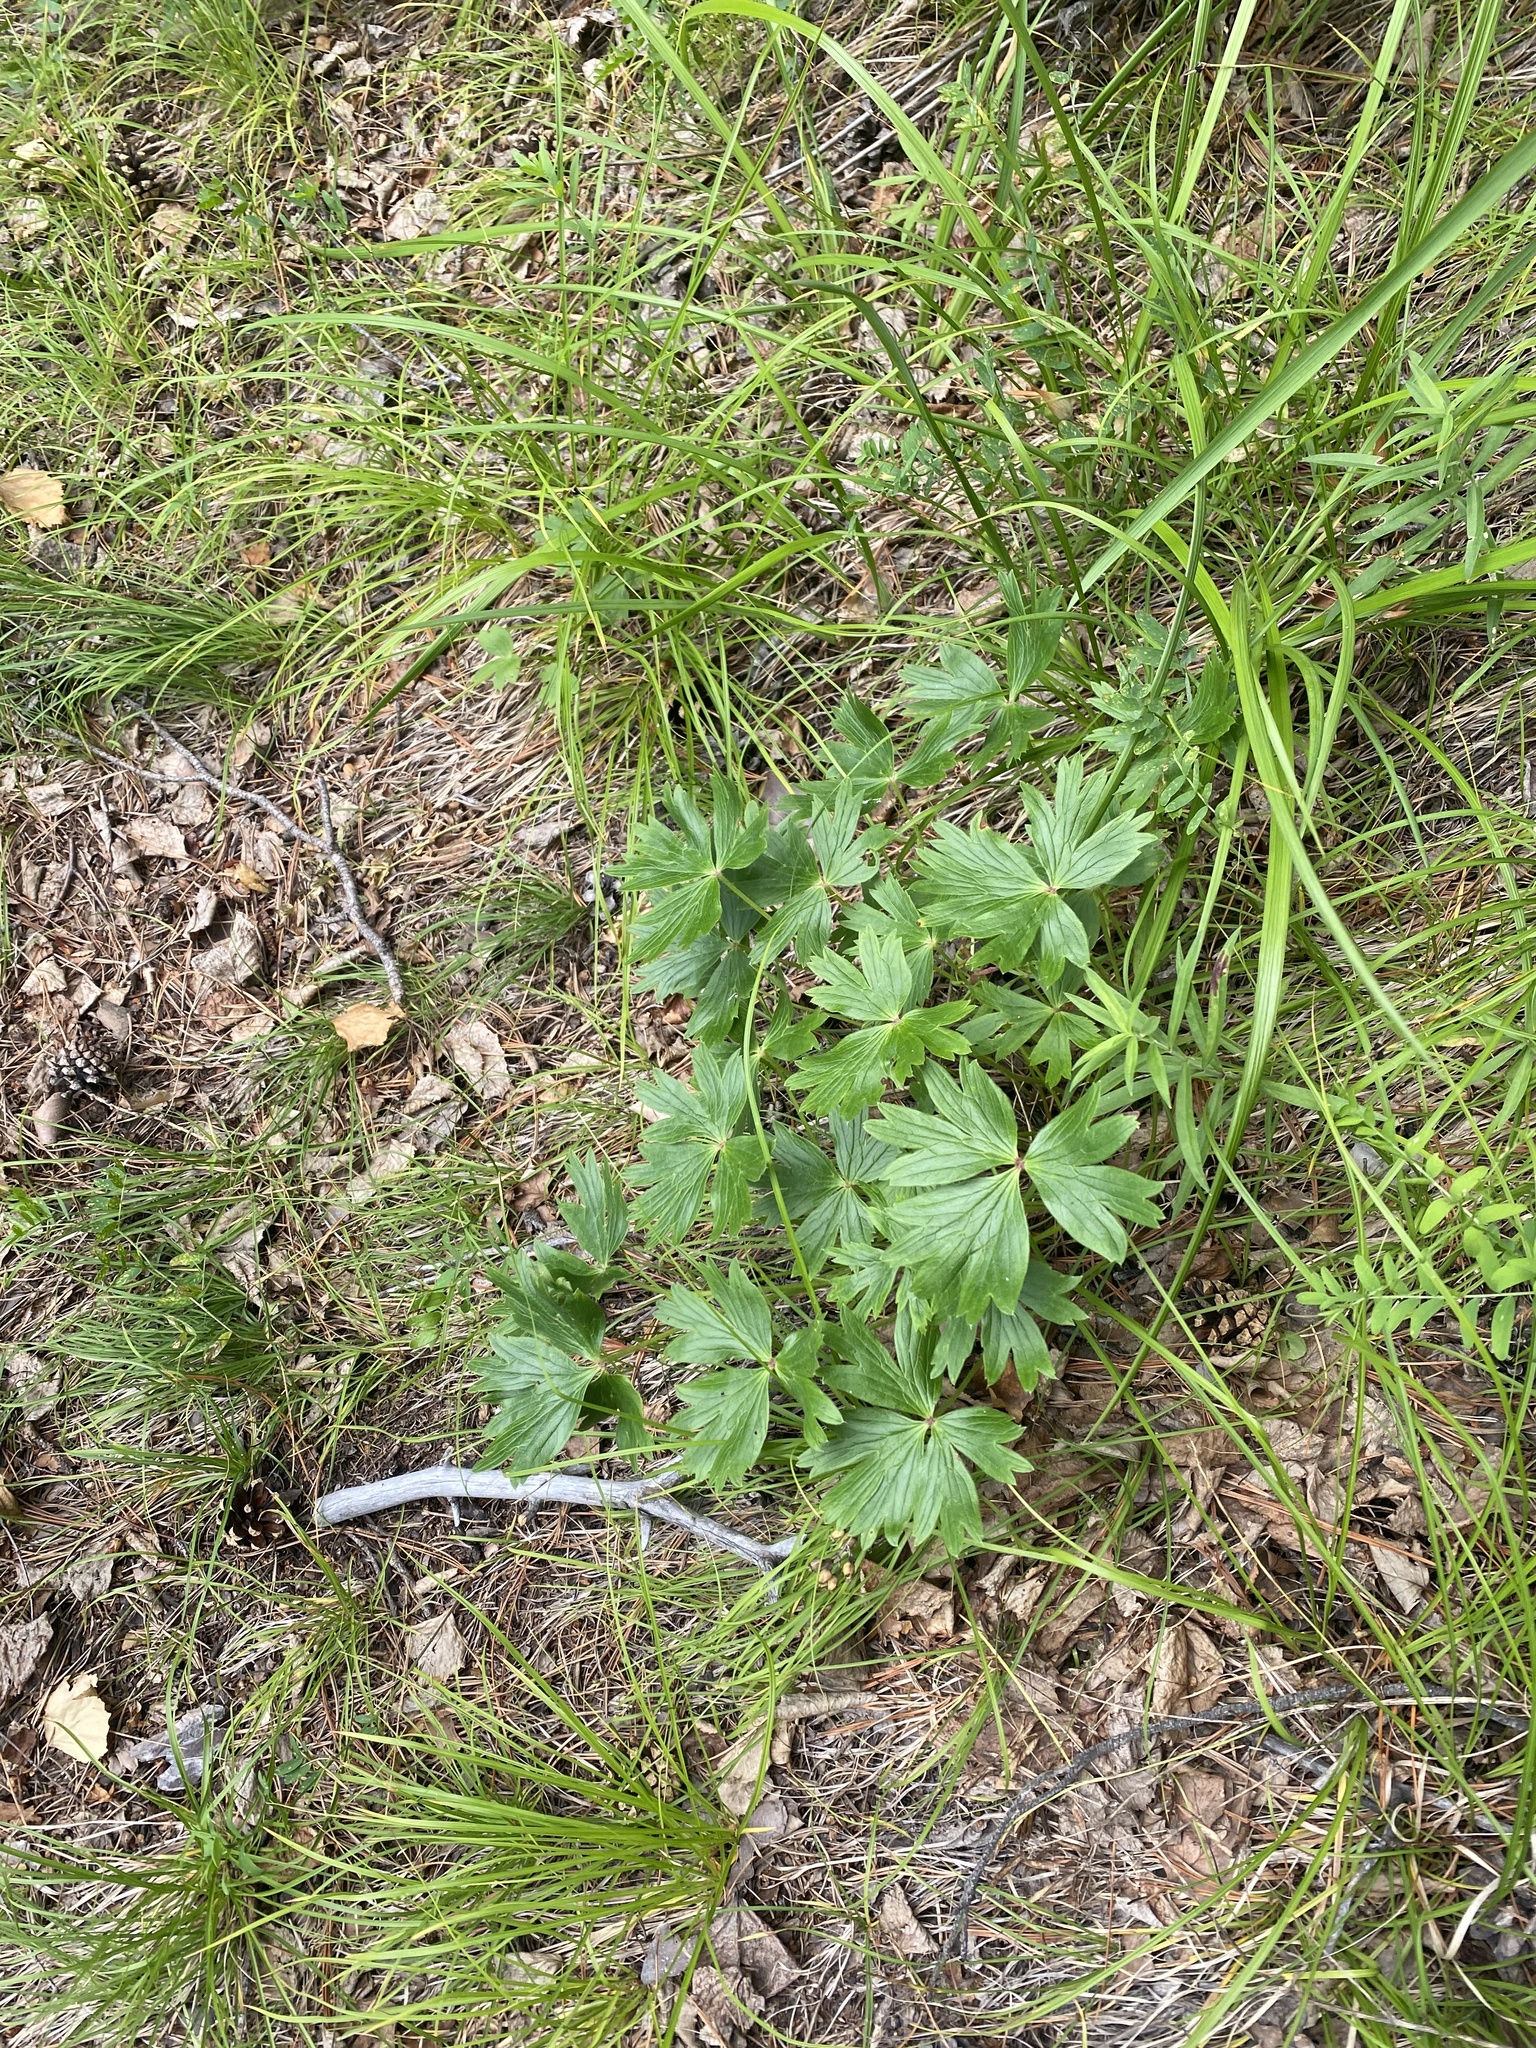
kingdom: Plantae
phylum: Tracheophyta
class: Magnoliopsida
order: Ranunculales
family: Ranunculaceae
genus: Pulsatilla
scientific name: Pulsatilla patens
